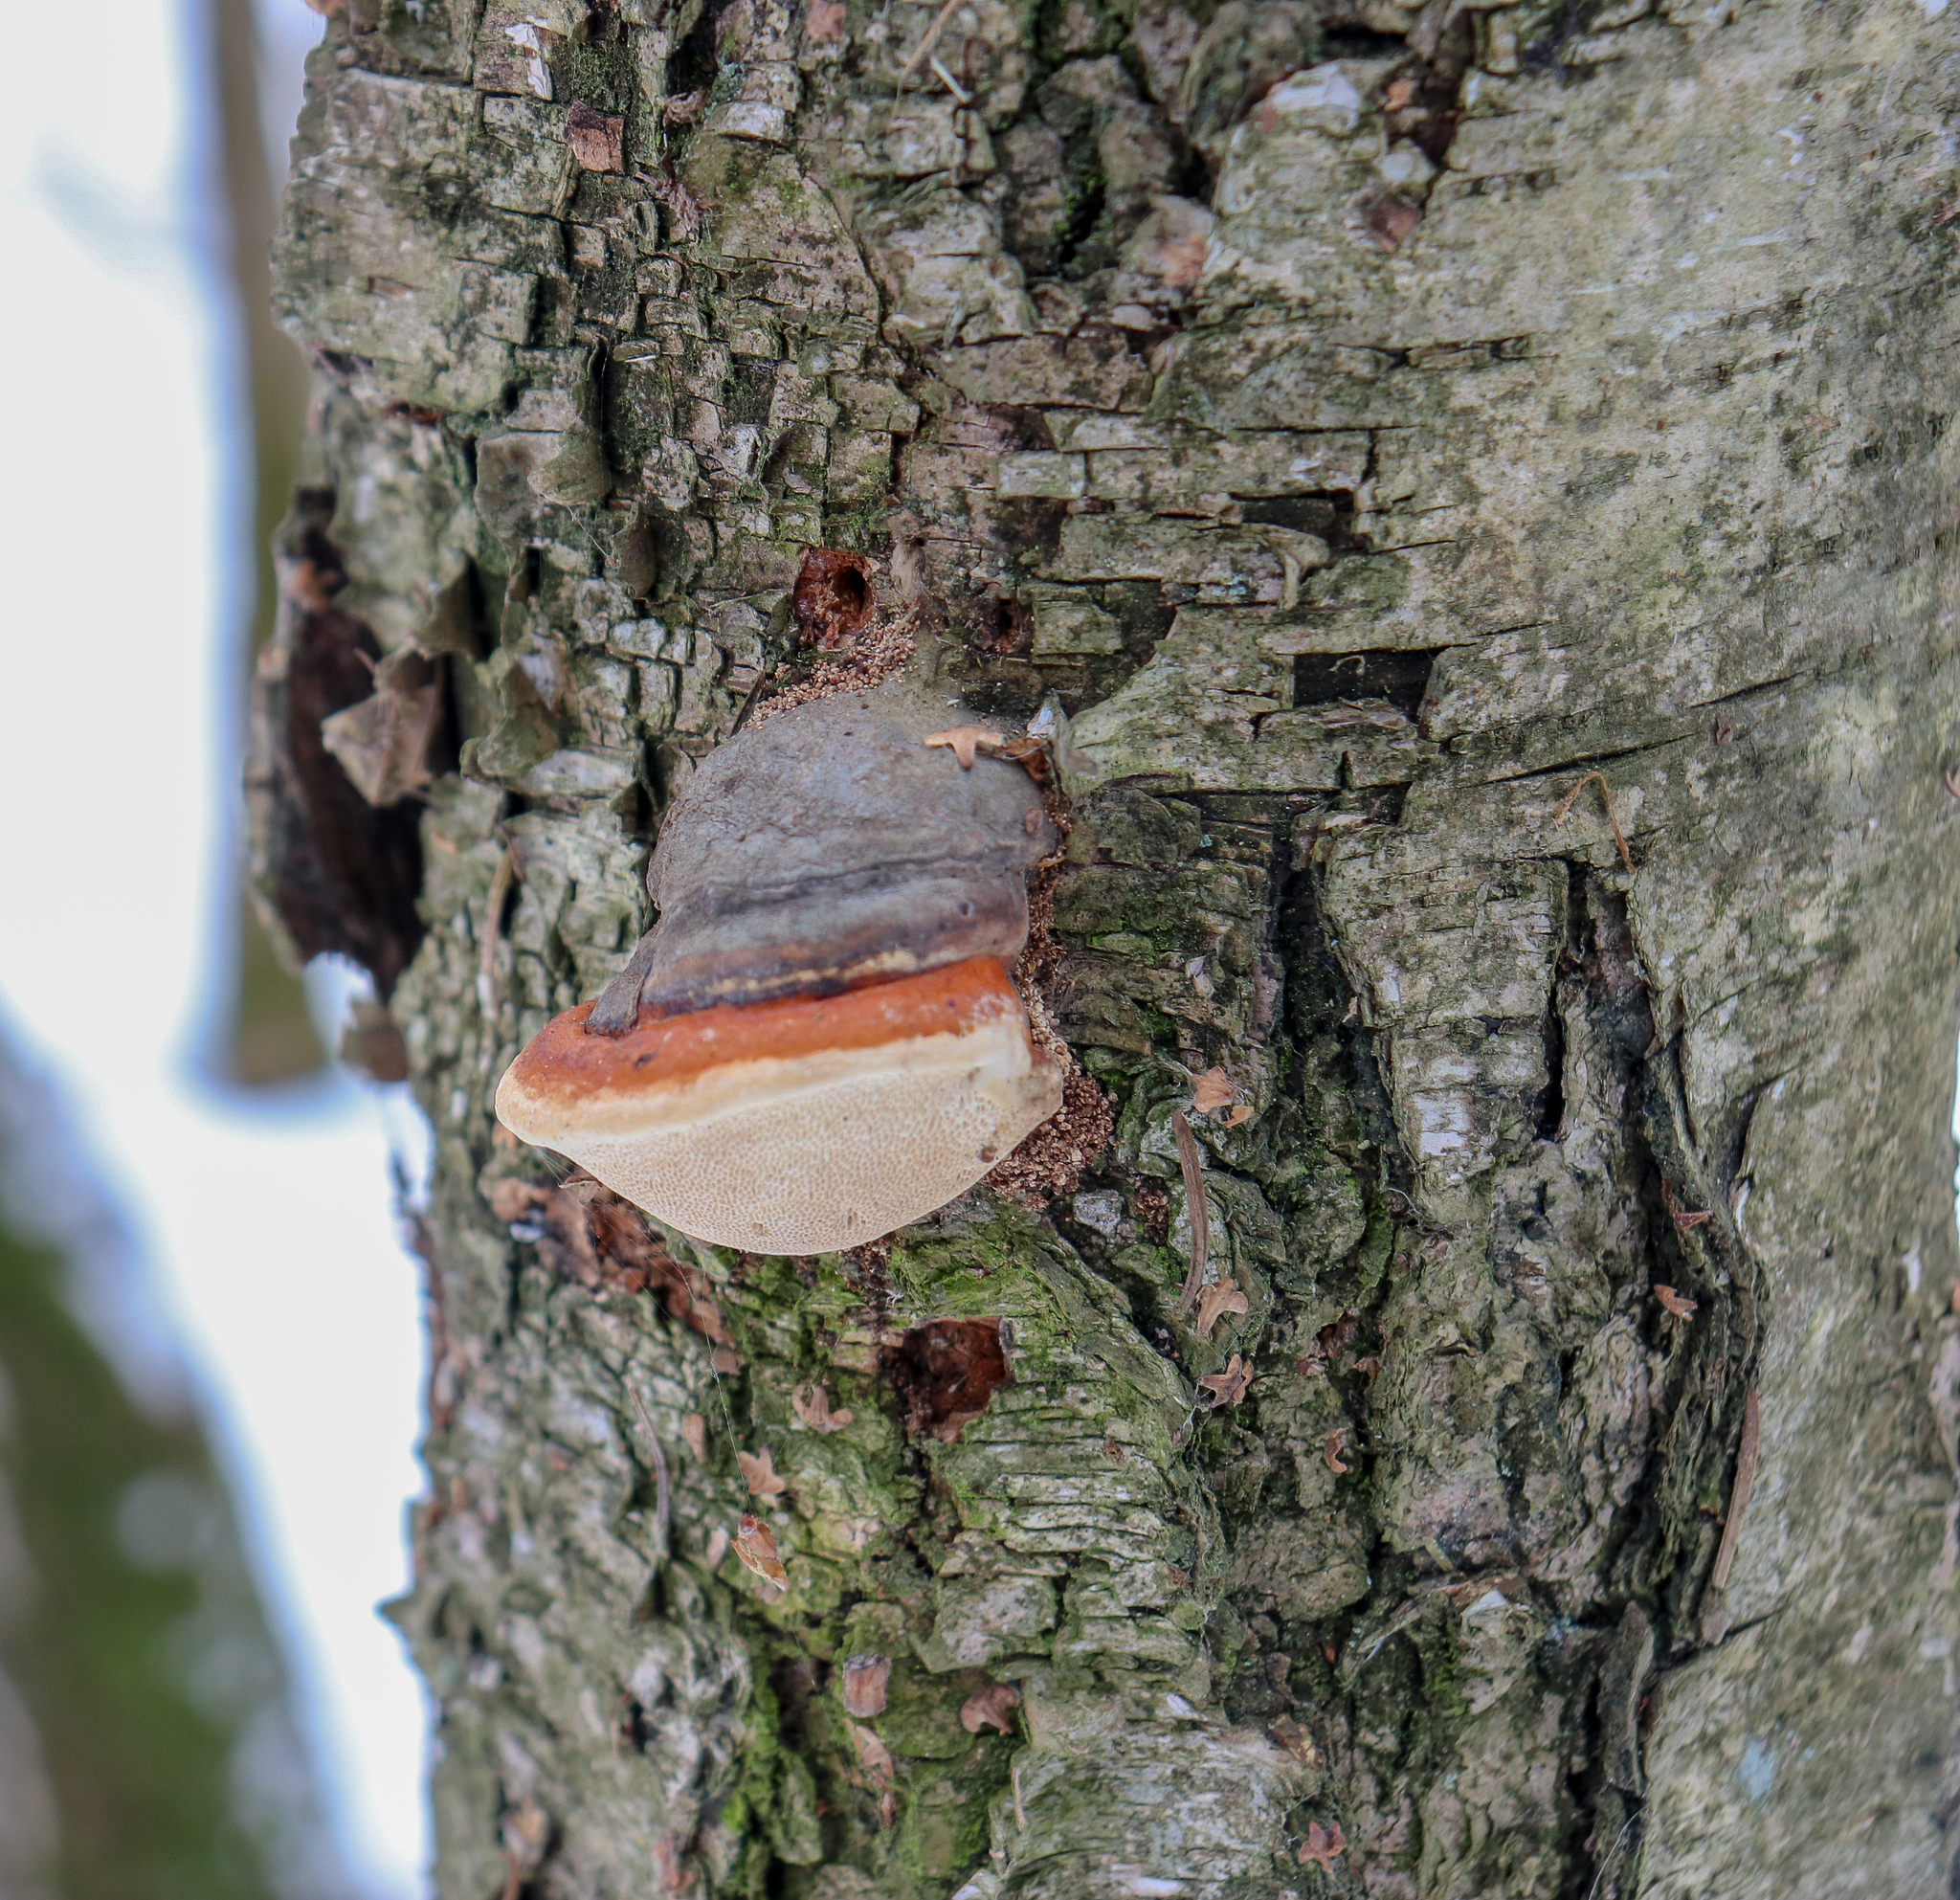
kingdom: Fungi
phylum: Basidiomycota
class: Agaricomycetes
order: Polyporales
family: Fomitopsidaceae
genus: Fomitopsis
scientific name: Fomitopsis pinicola
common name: Red-belted bracket
